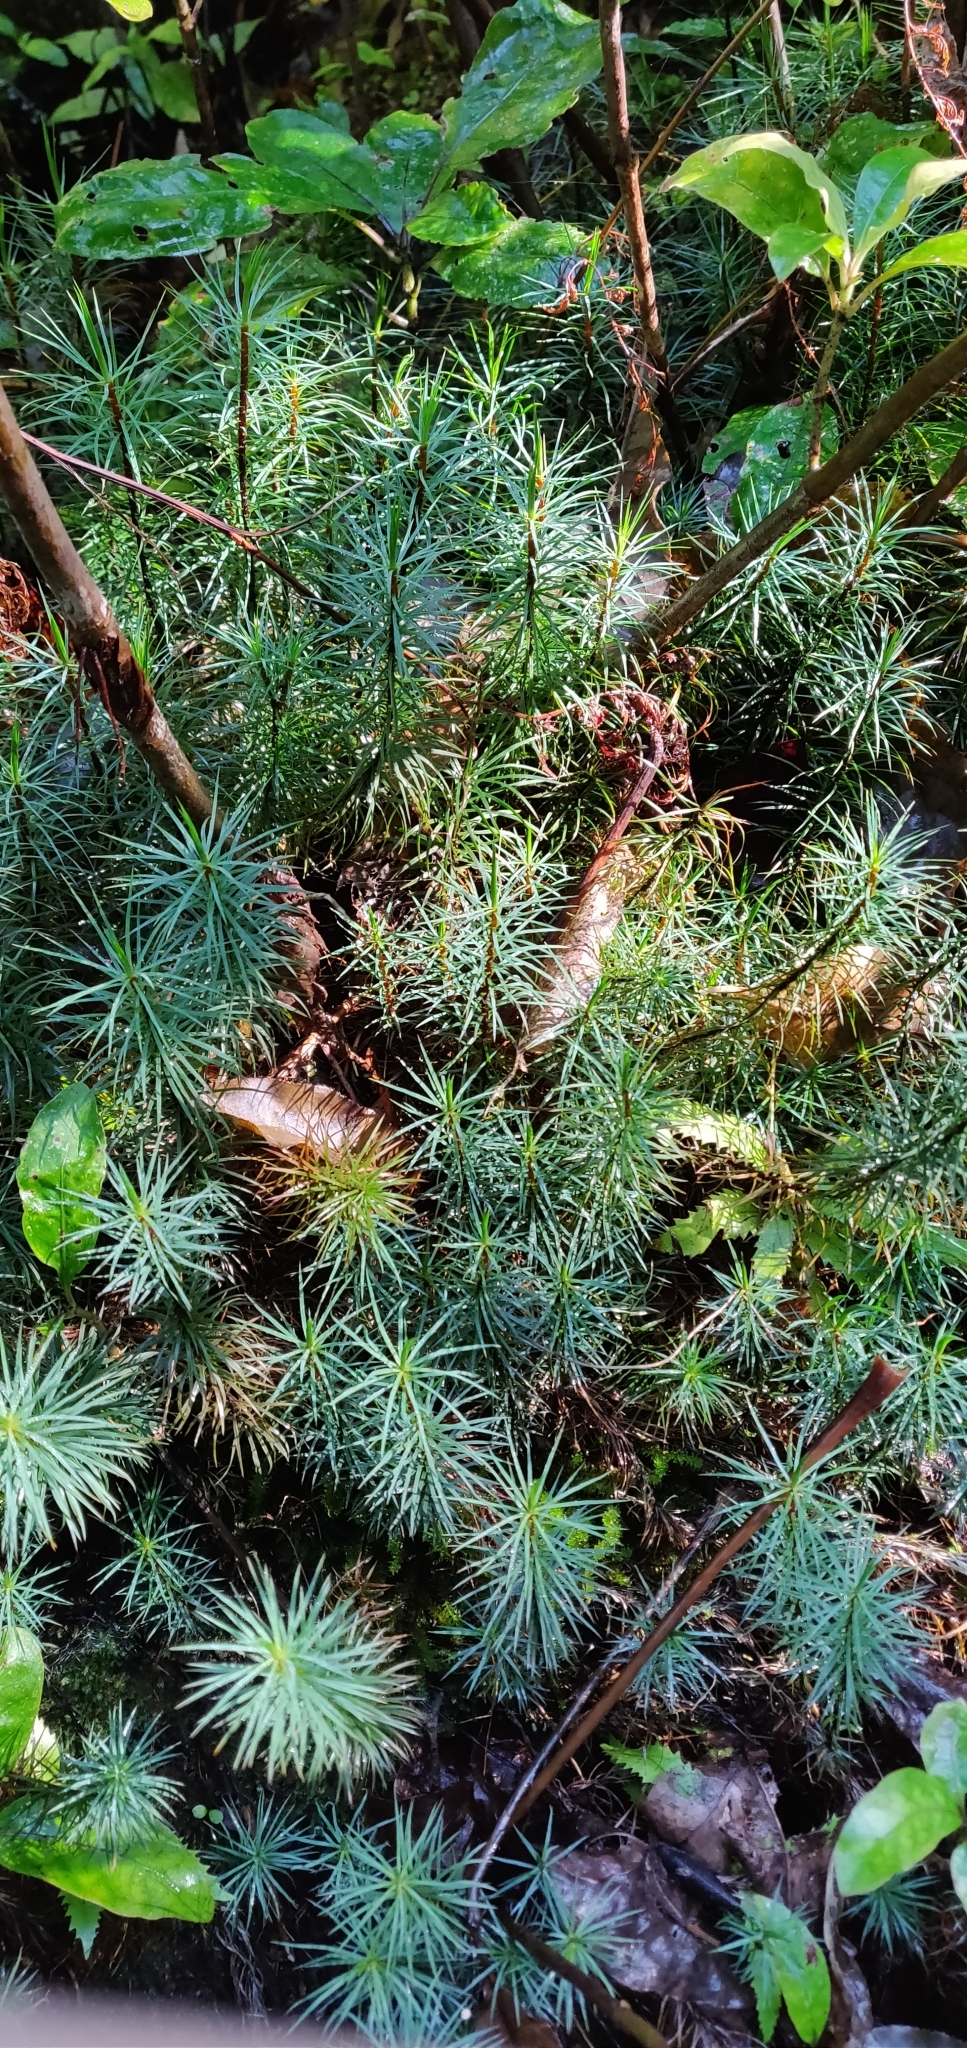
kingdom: Plantae
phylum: Bryophyta
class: Polytrichopsida
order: Polytrichales
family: Polytrichaceae
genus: Dawsonia
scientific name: Dawsonia superba
